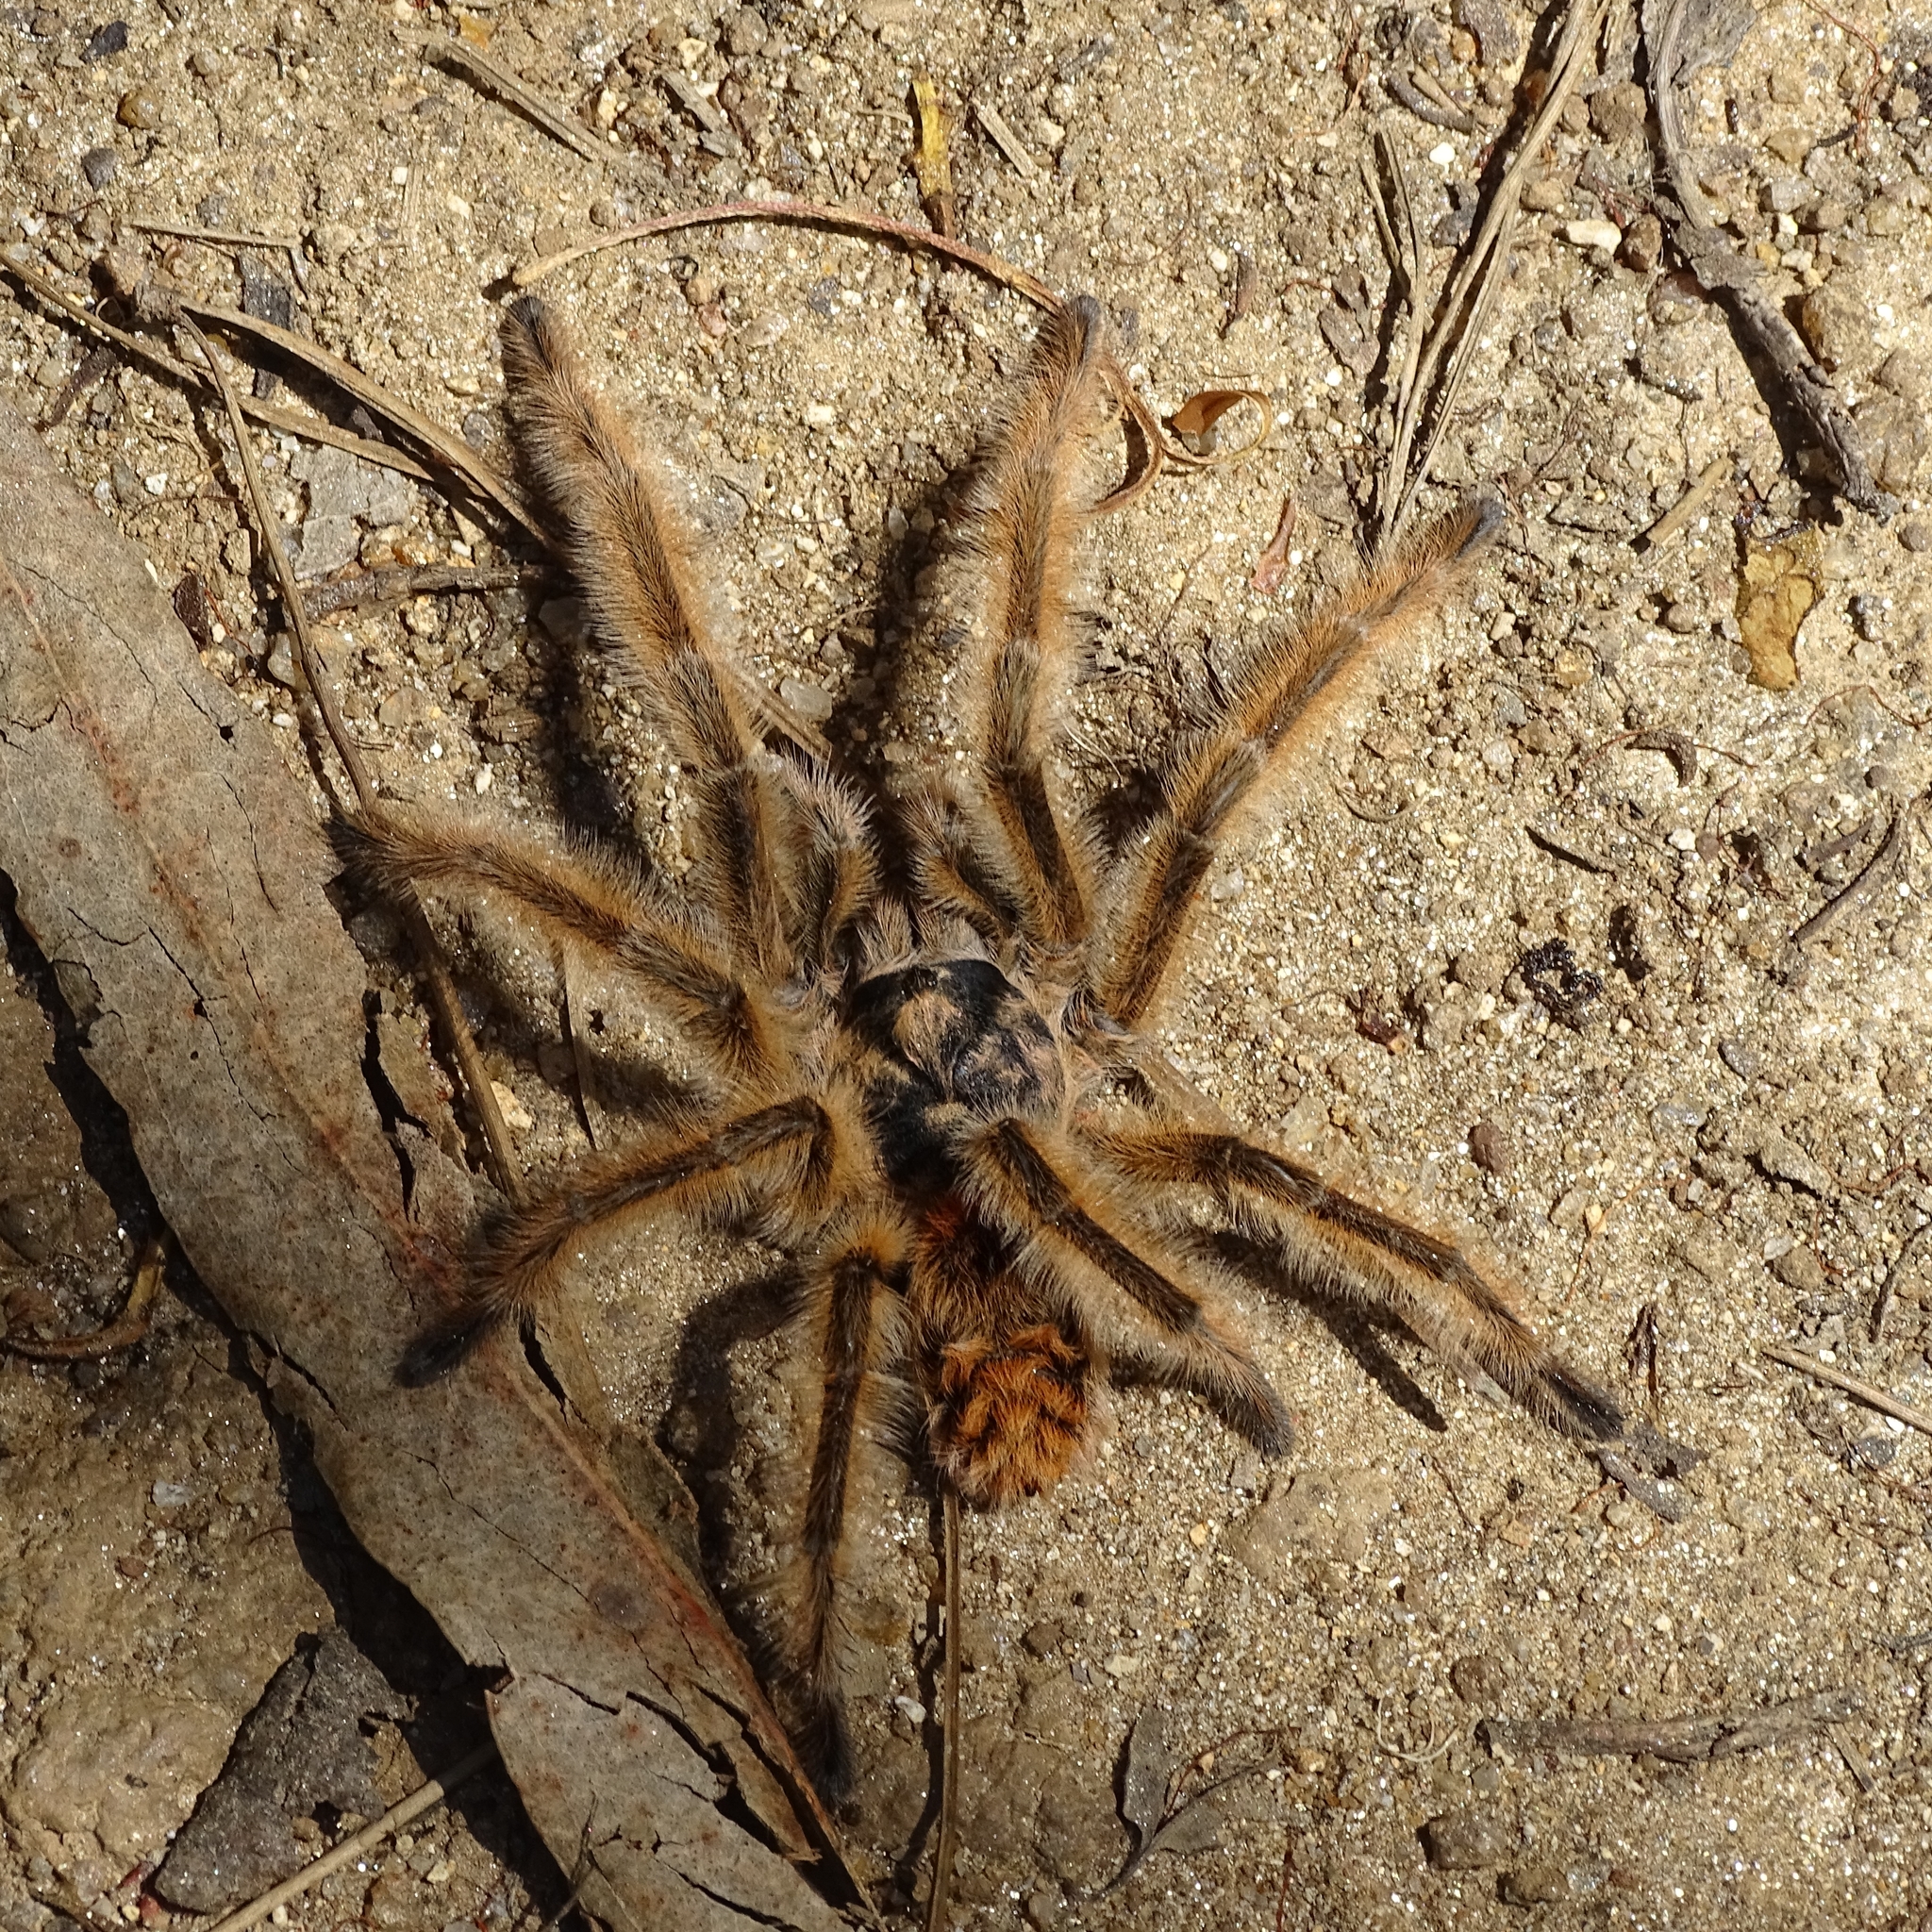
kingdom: Animalia
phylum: Arthropoda
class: Arachnida
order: Araneae
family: Theraphosidae
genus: Phrixotrichus
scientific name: Phrixotrichus vulpinus
